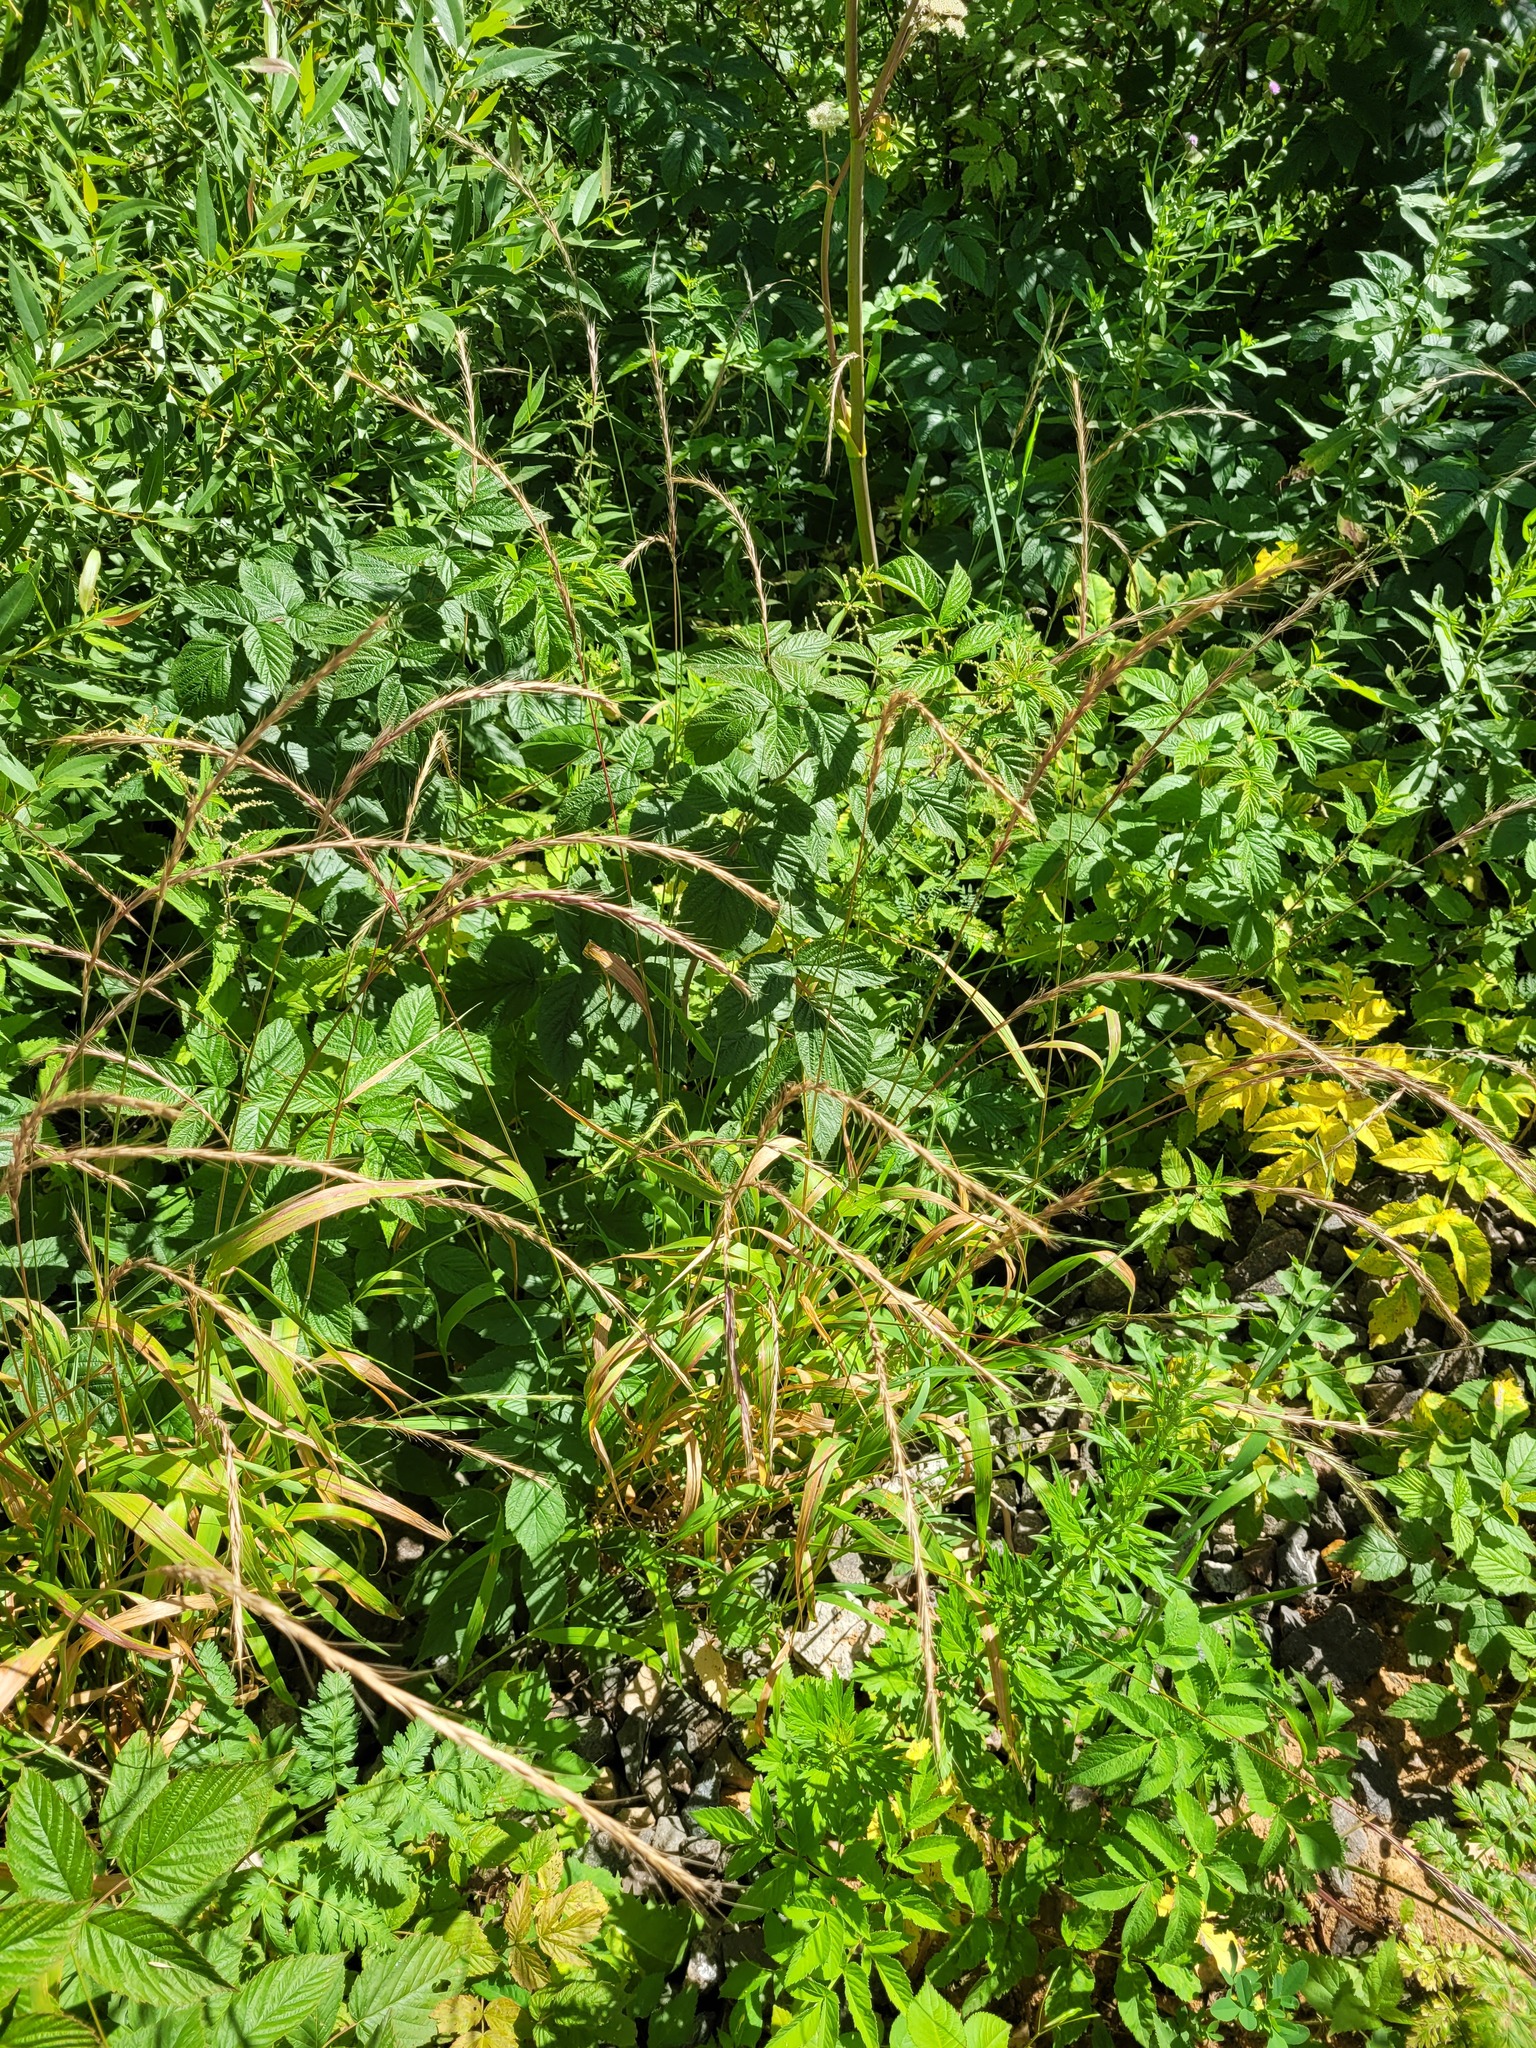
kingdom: Plantae
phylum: Tracheophyta
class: Liliopsida
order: Poales
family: Poaceae
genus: Elymus
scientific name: Elymus caninus
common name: Bearded couch
